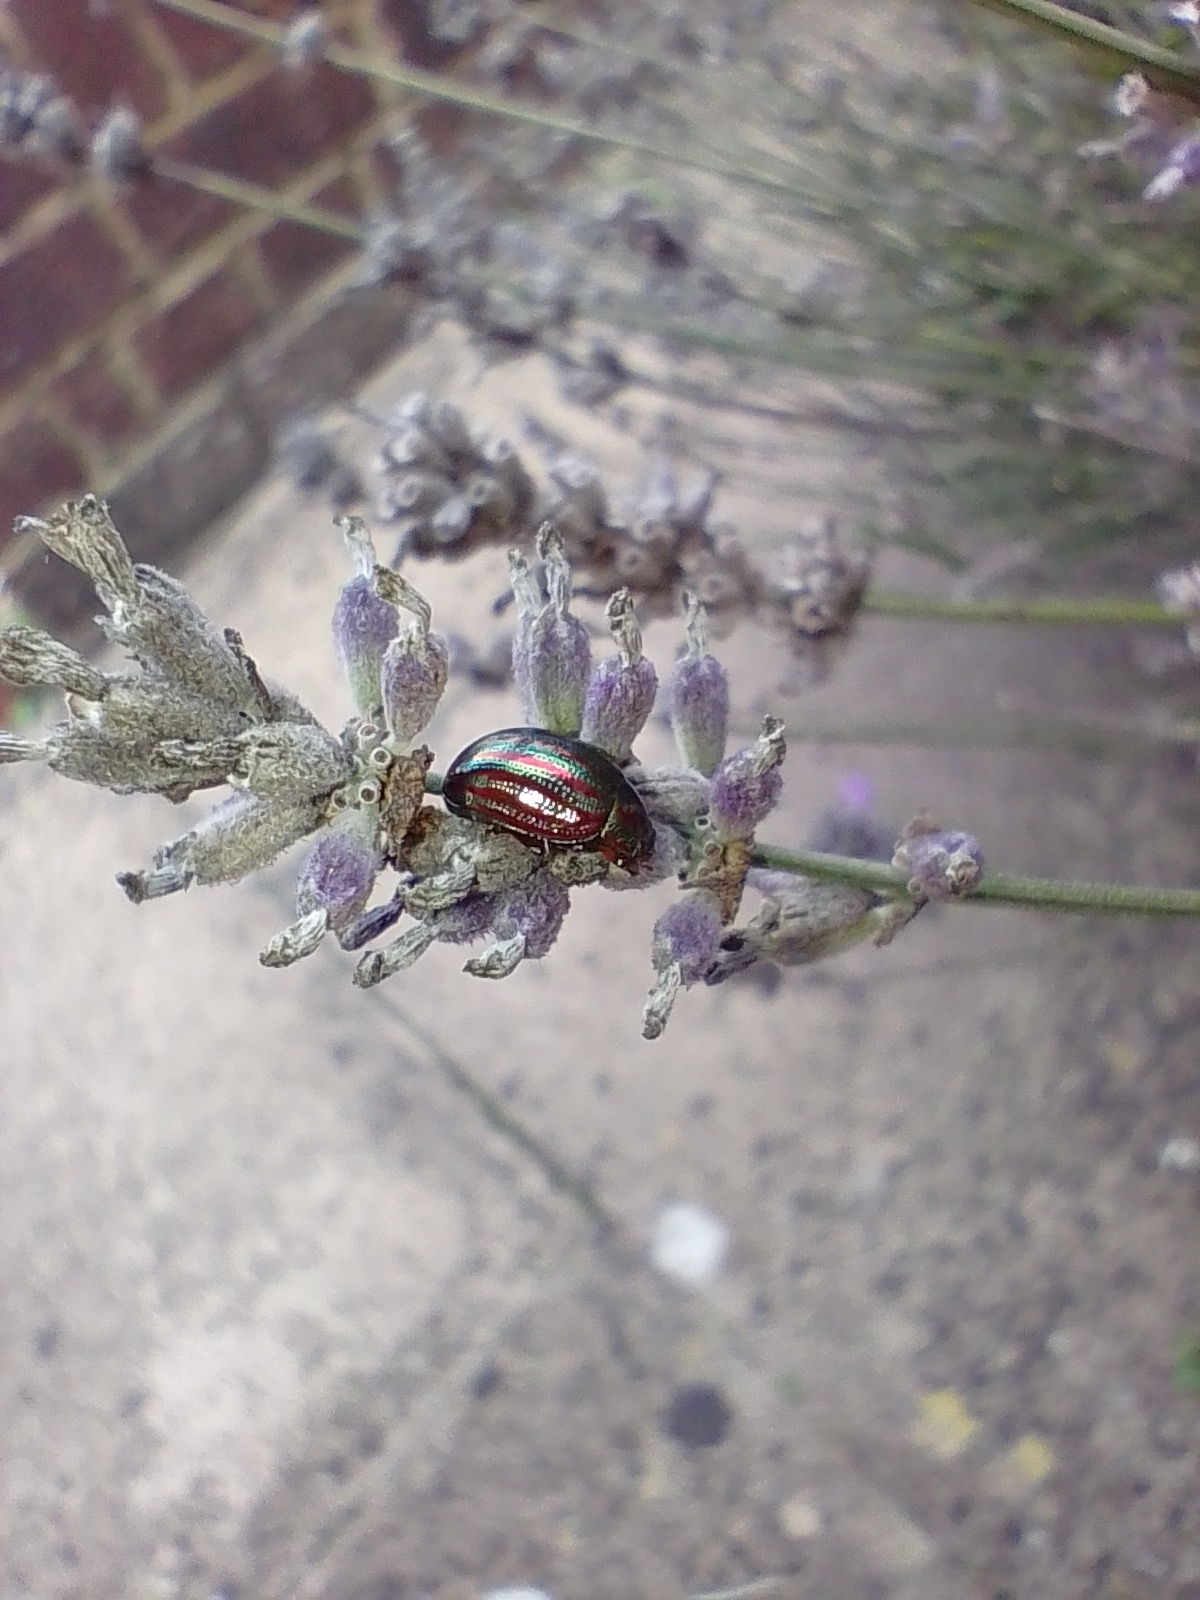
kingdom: Animalia
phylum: Arthropoda
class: Insecta
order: Coleoptera
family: Chrysomelidae
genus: Chrysolina
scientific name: Chrysolina americana
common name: Rosemary beetle
